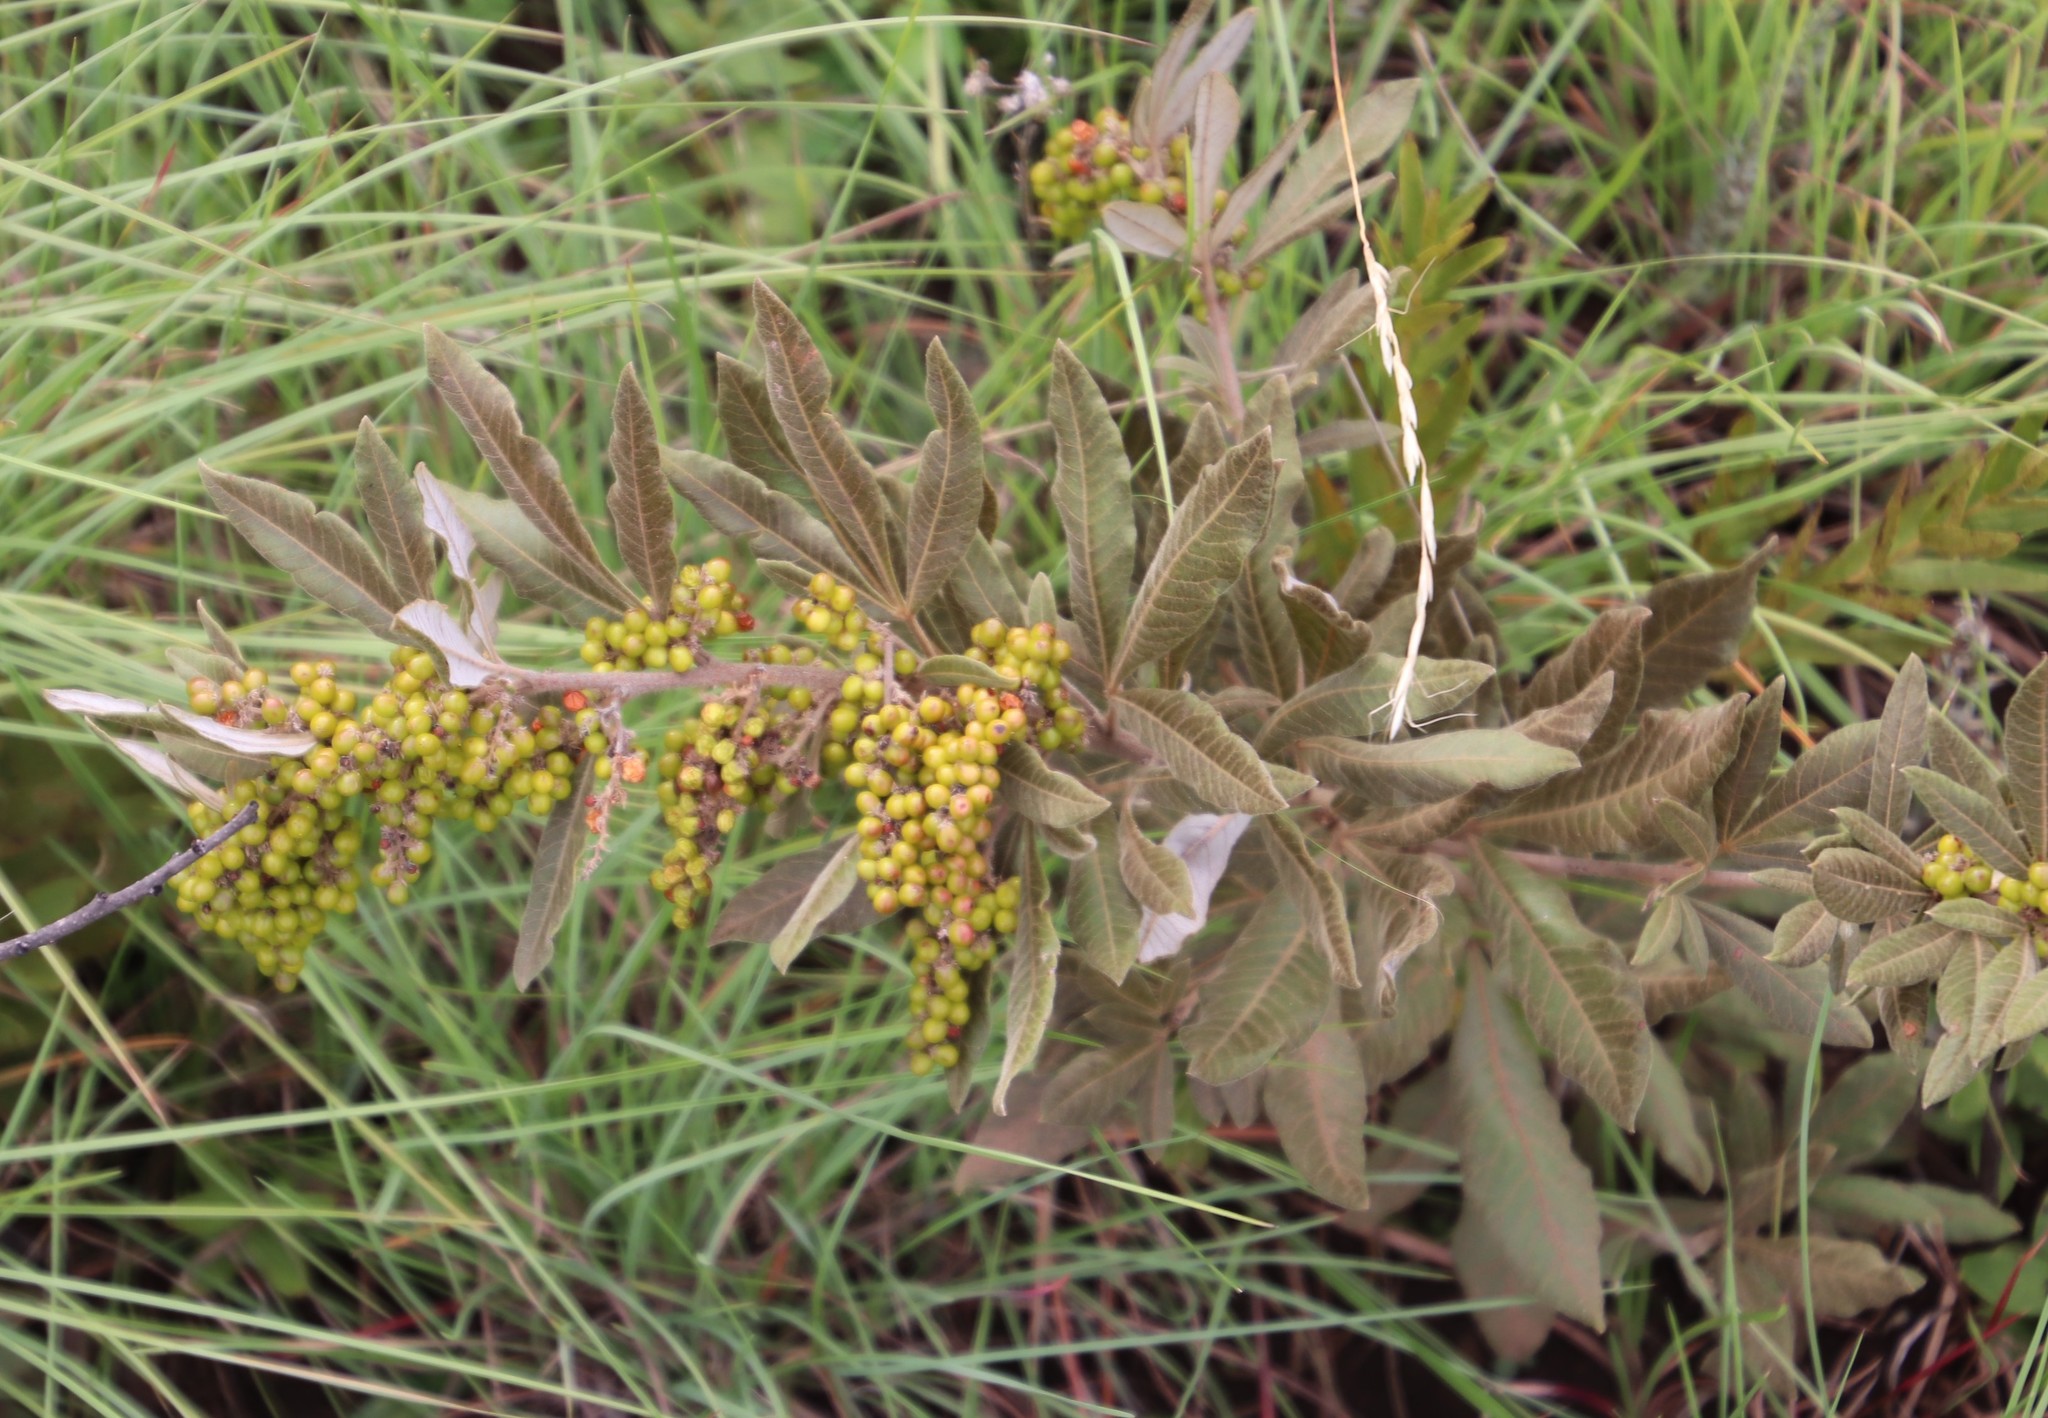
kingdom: Plantae
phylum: Tracheophyta
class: Magnoliopsida
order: Sapindales
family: Anacardiaceae
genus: Searsia
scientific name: Searsia discolor
